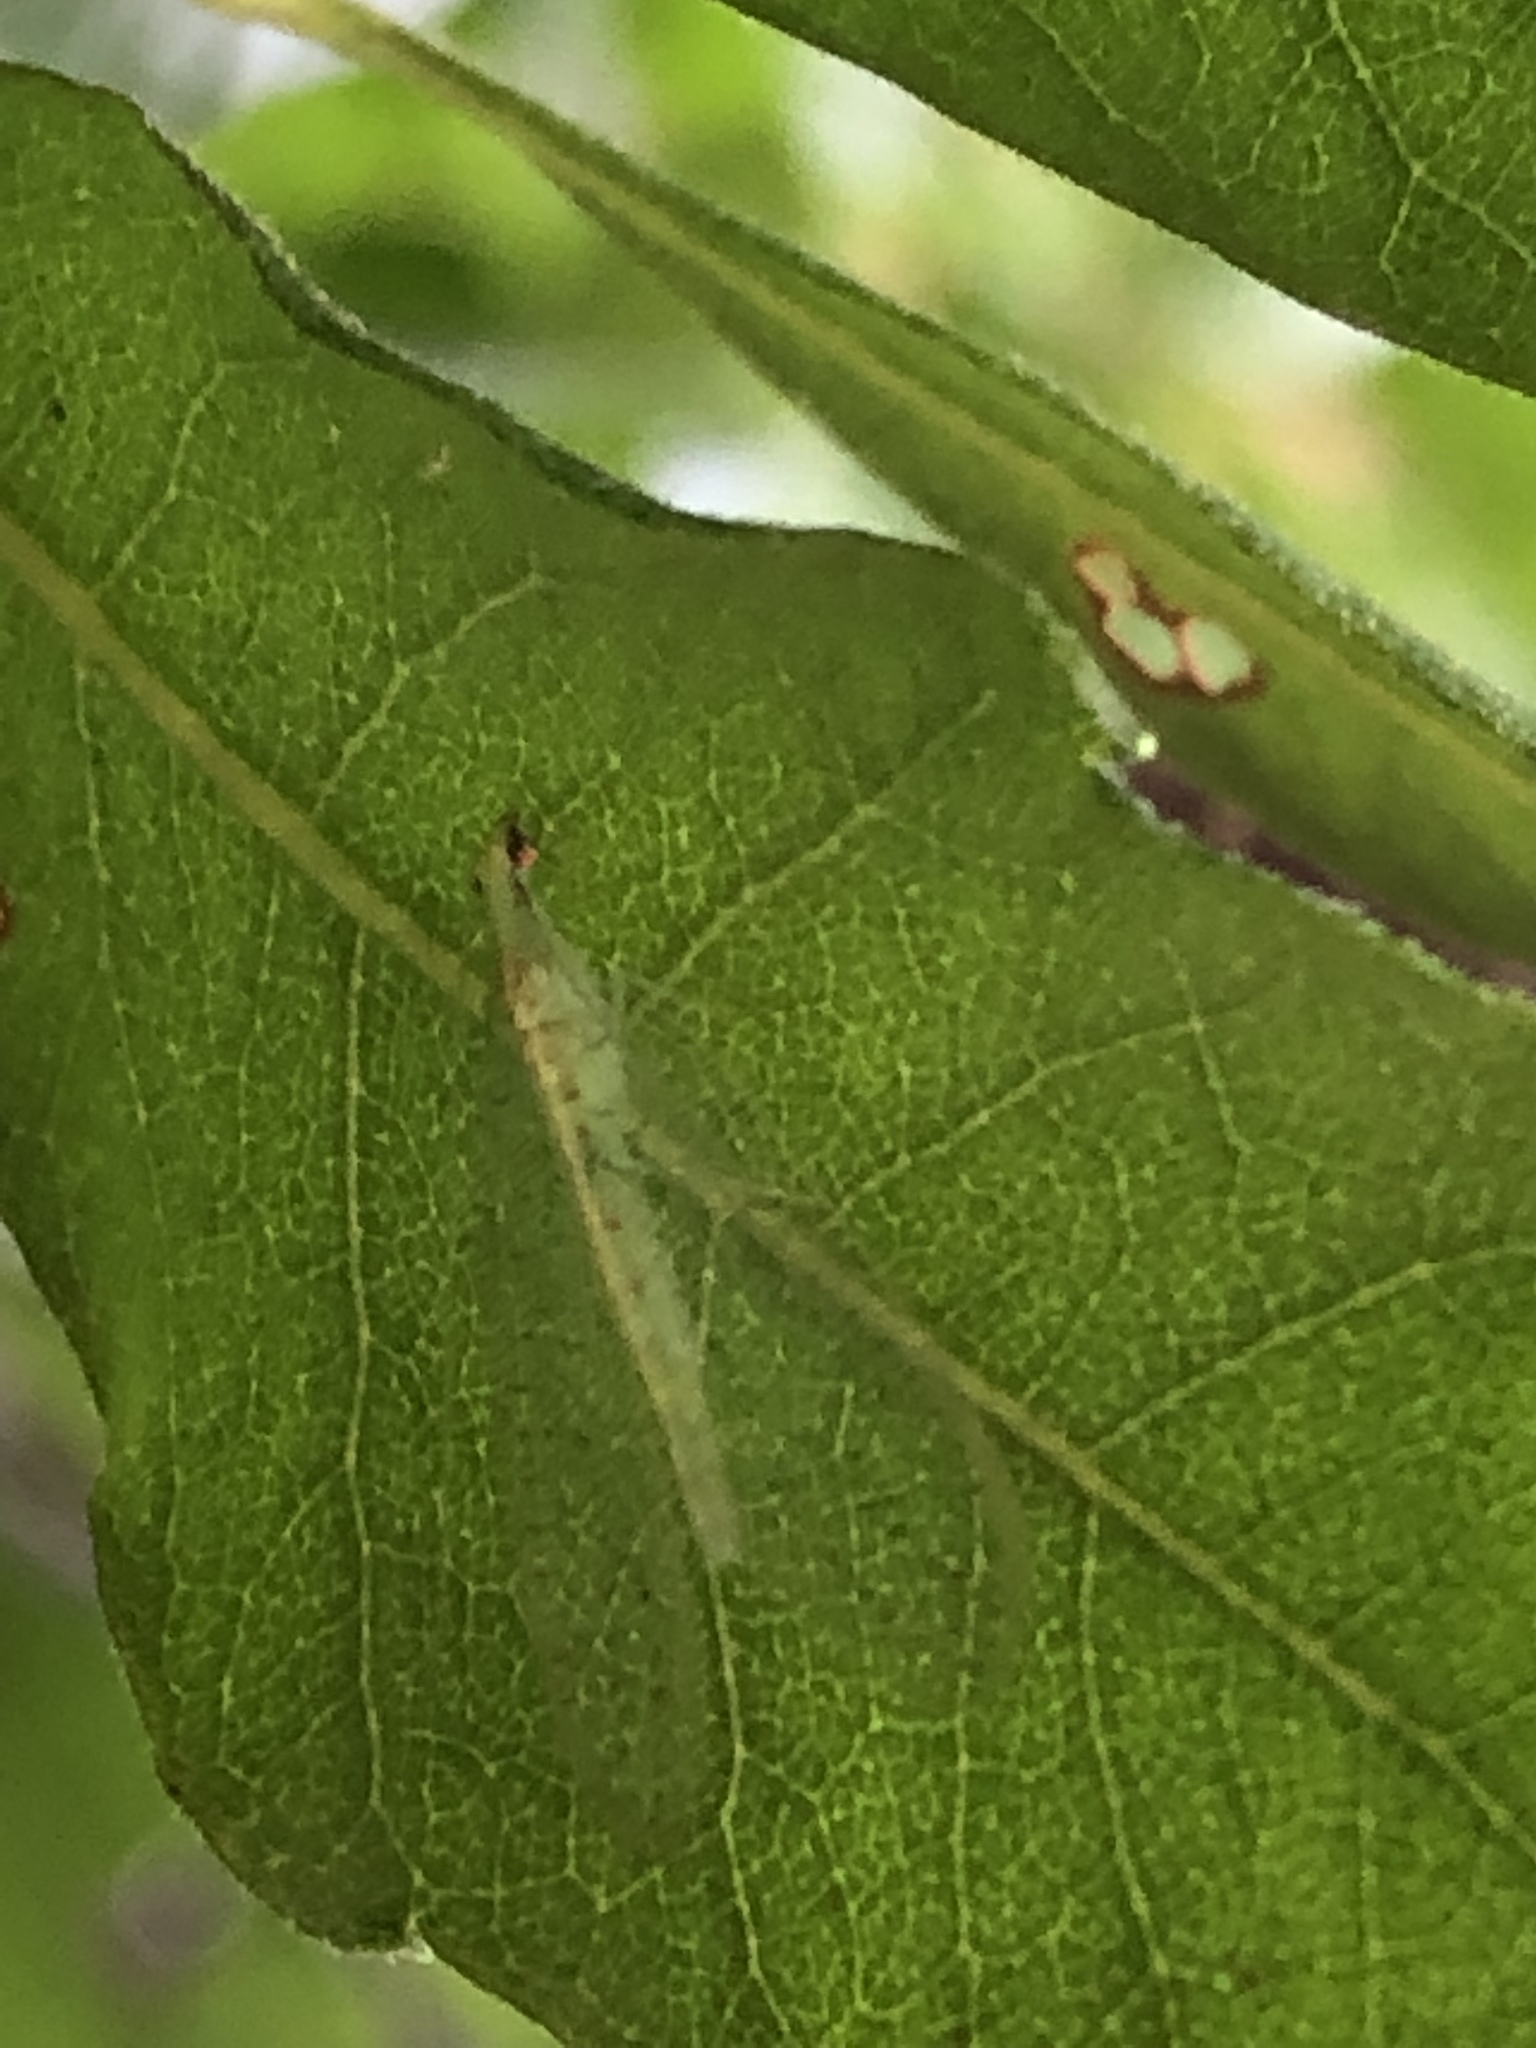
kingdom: Animalia
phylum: Arthropoda
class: Insecta
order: Neuroptera
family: Chrysopidae
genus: Chrysoperla
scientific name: Chrysoperla
